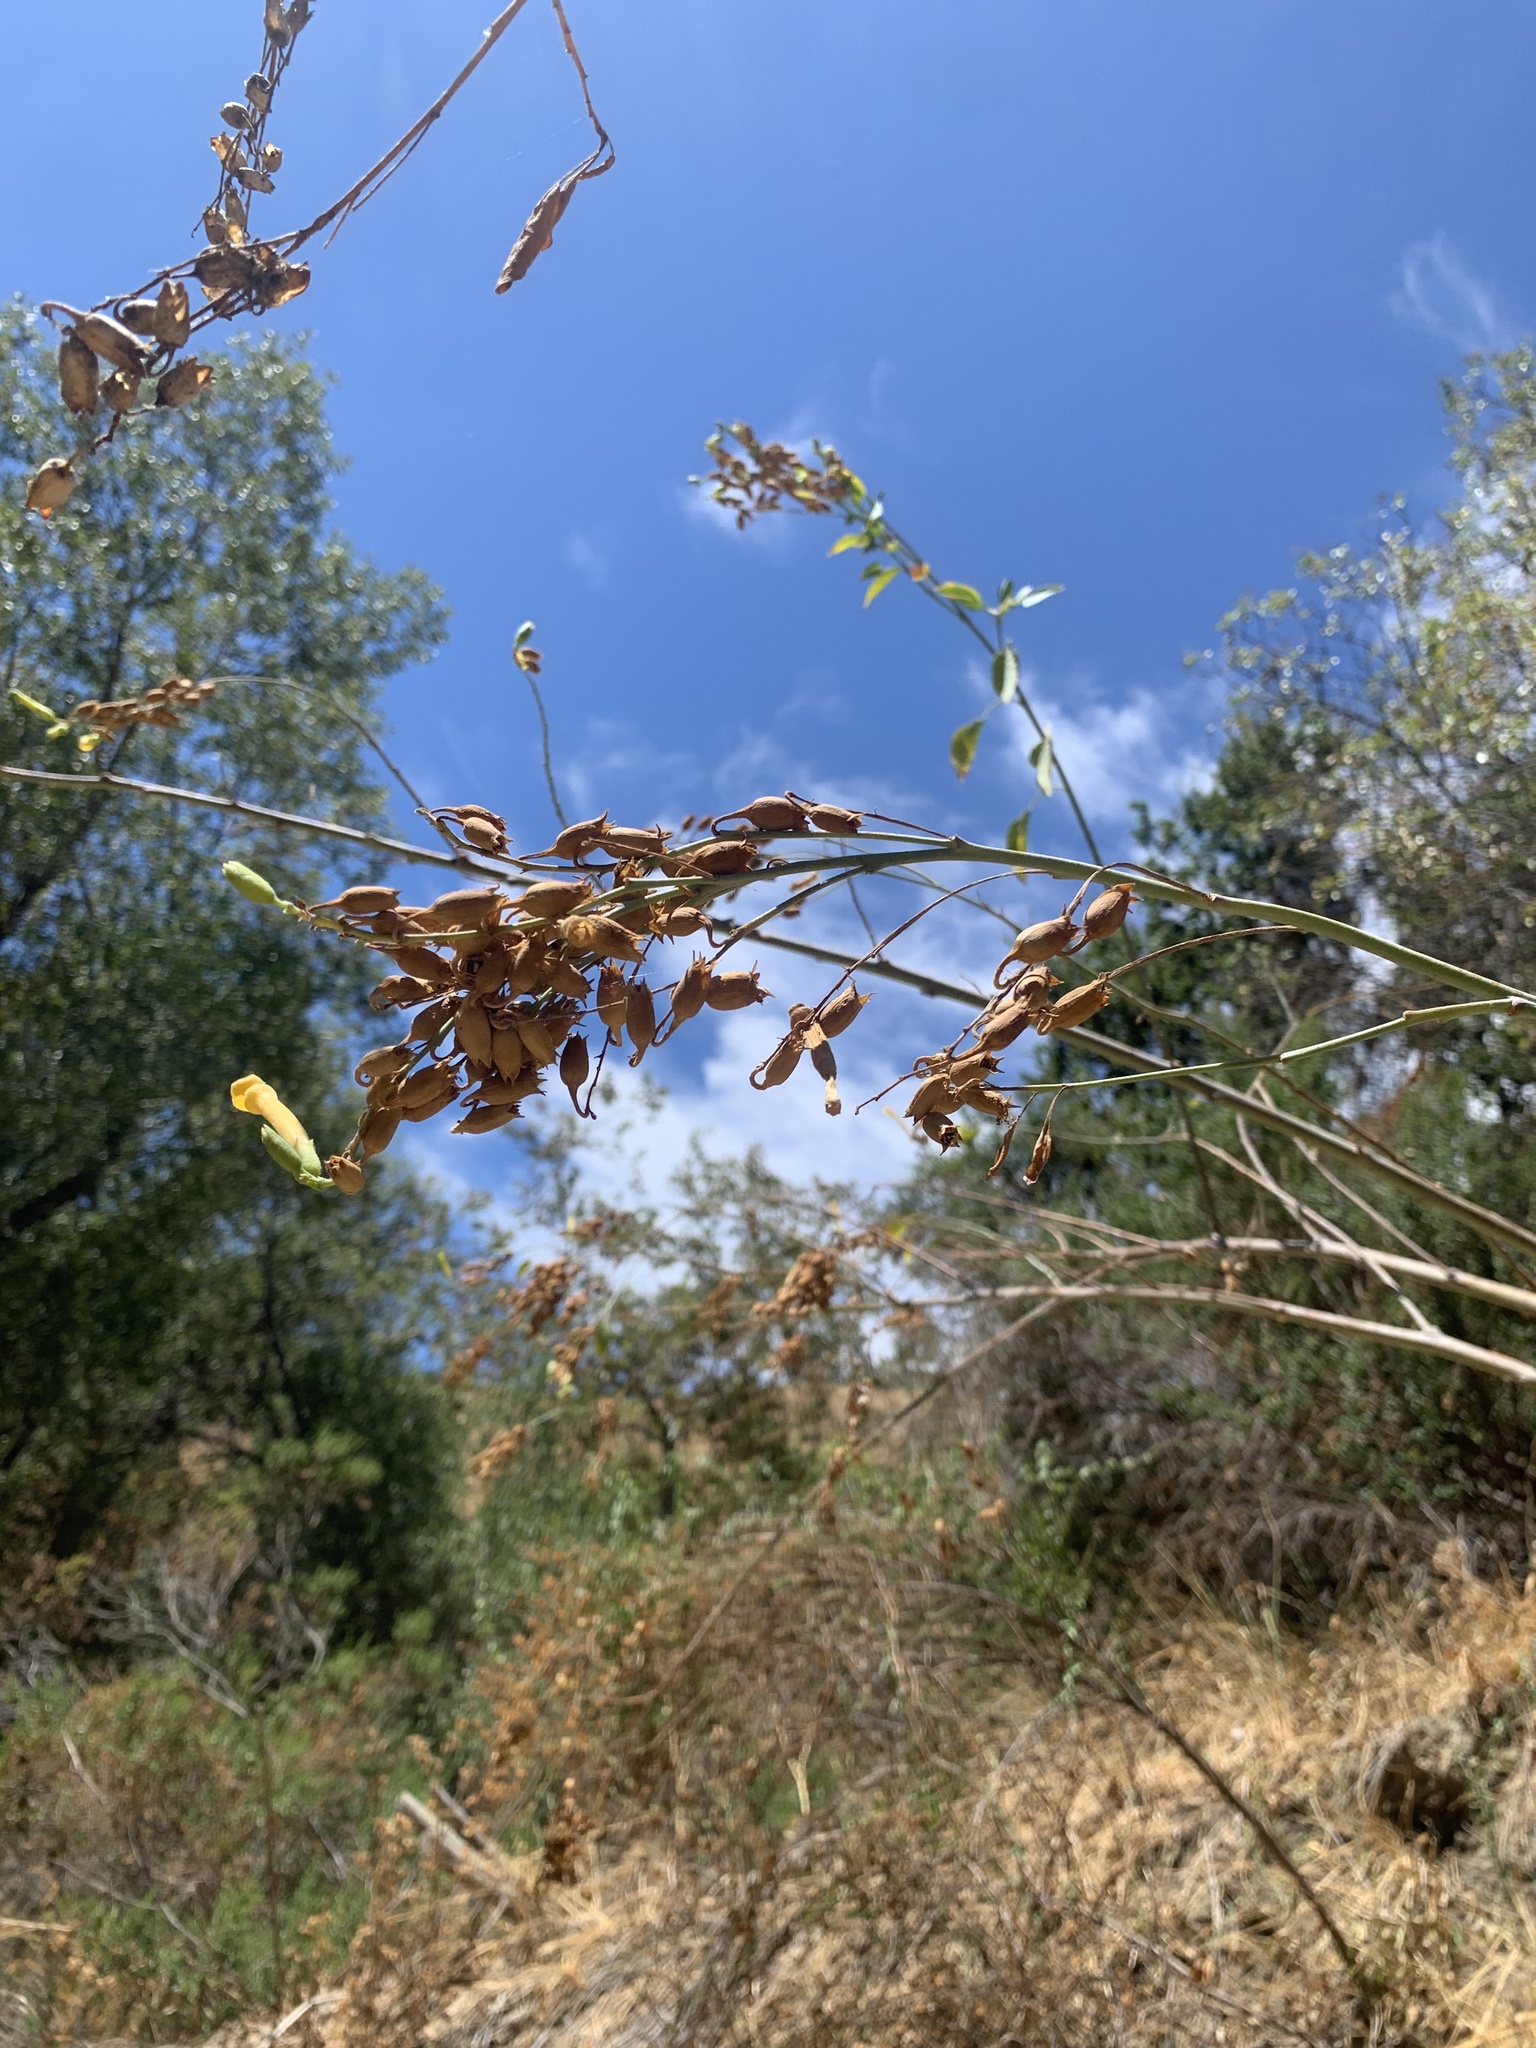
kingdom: Plantae
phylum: Tracheophyta
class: Magnoliopsida
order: Solanales
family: Solanaceae
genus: Nicotiana
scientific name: Nicotiana glauca
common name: Tree tobacco
